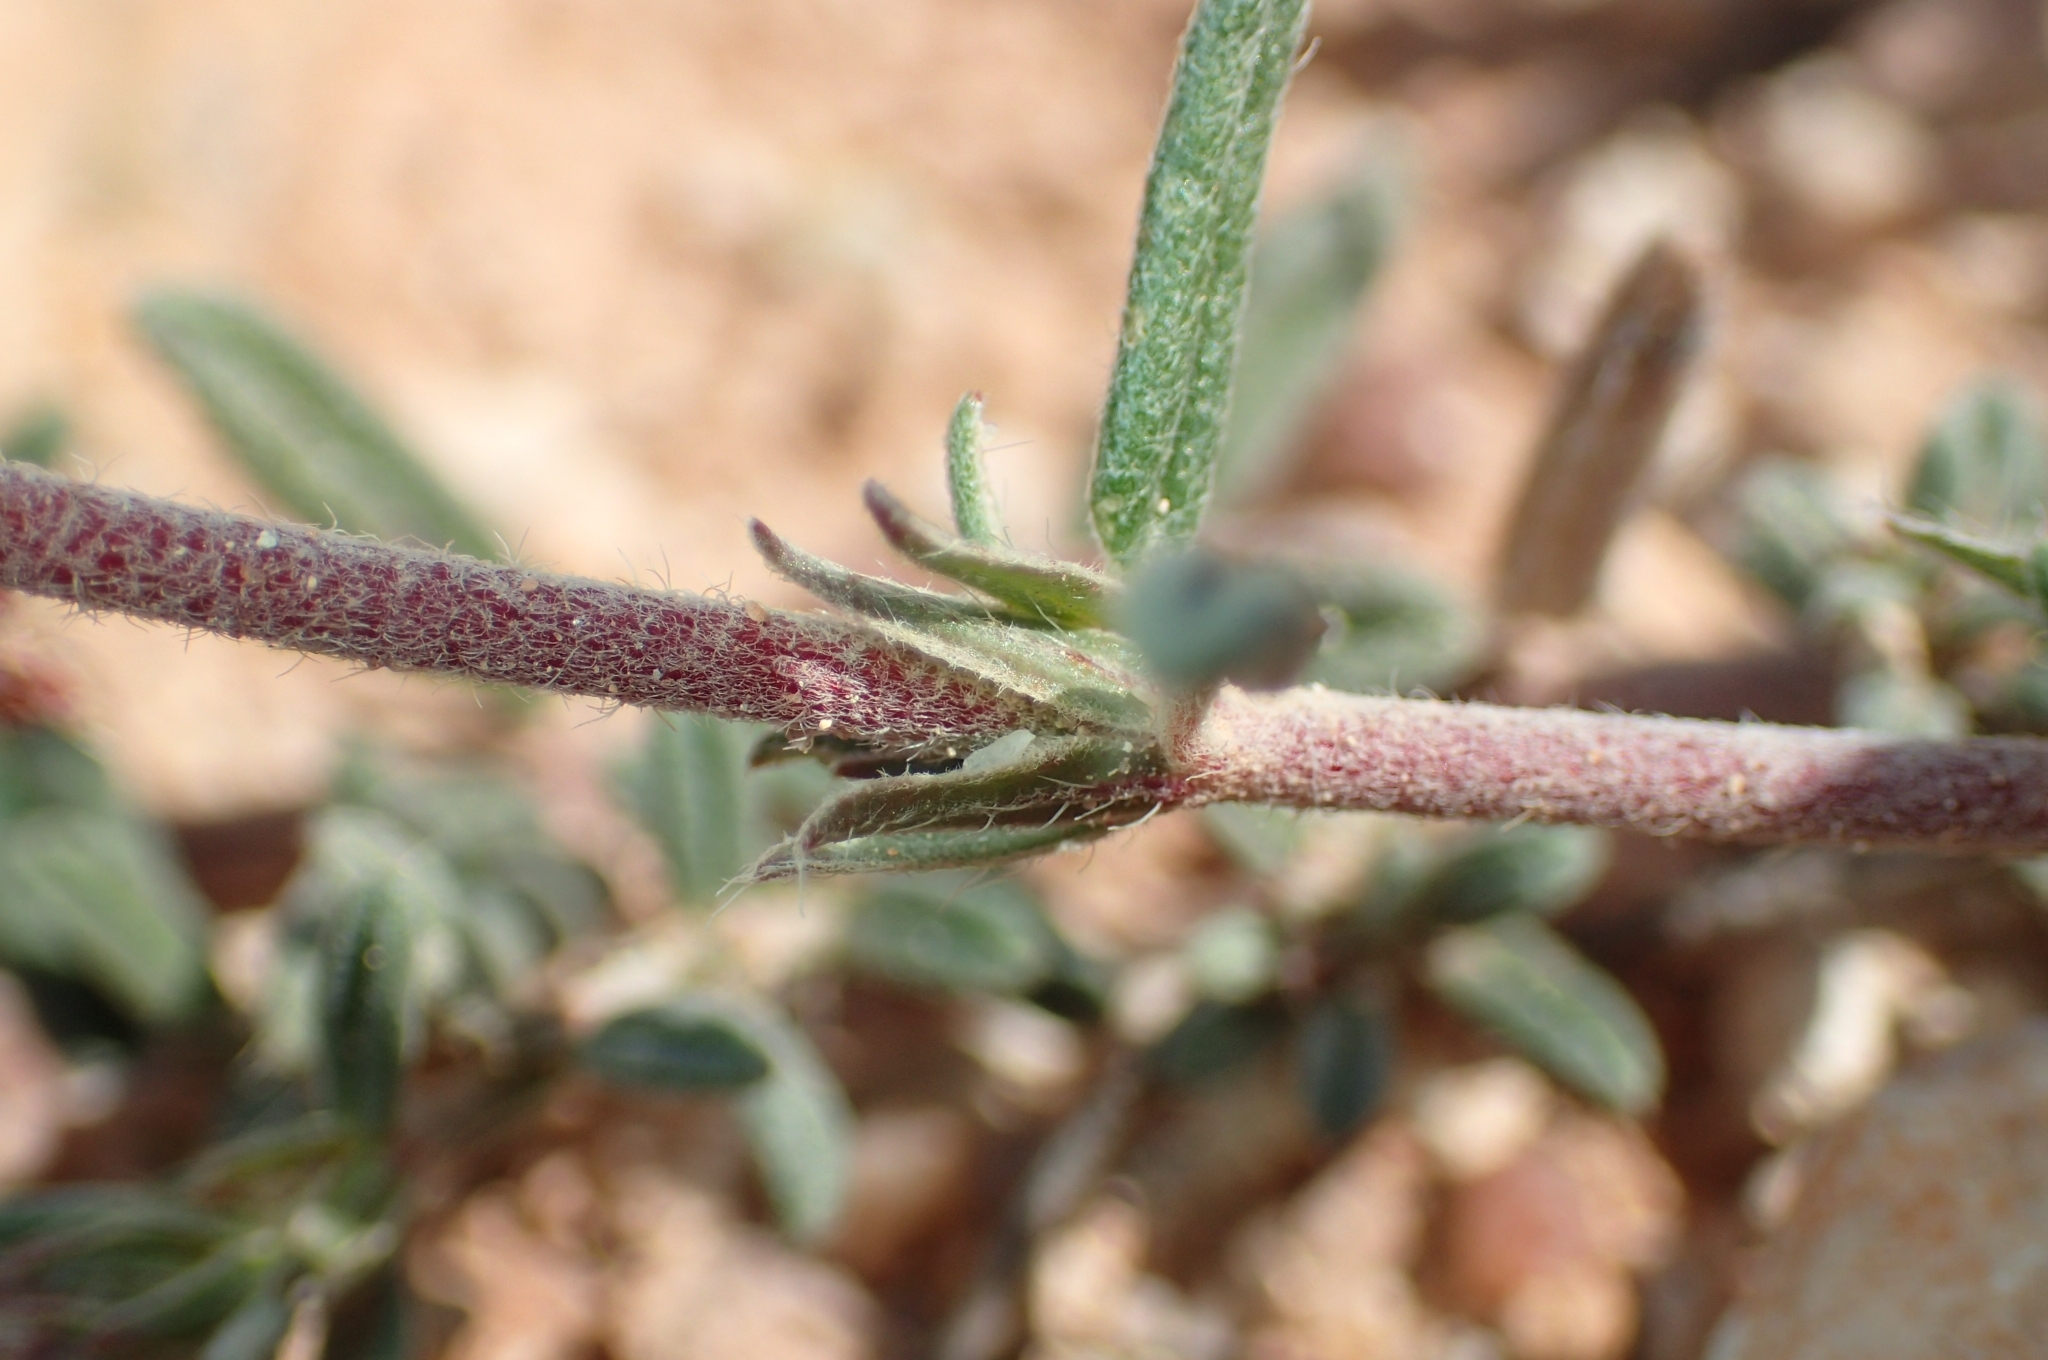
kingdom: Plantae
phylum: Tracheophyta
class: Magnoliopsida
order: Malvales
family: Cistaceae
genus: Helianthemum
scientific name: Helianthemum asperum
